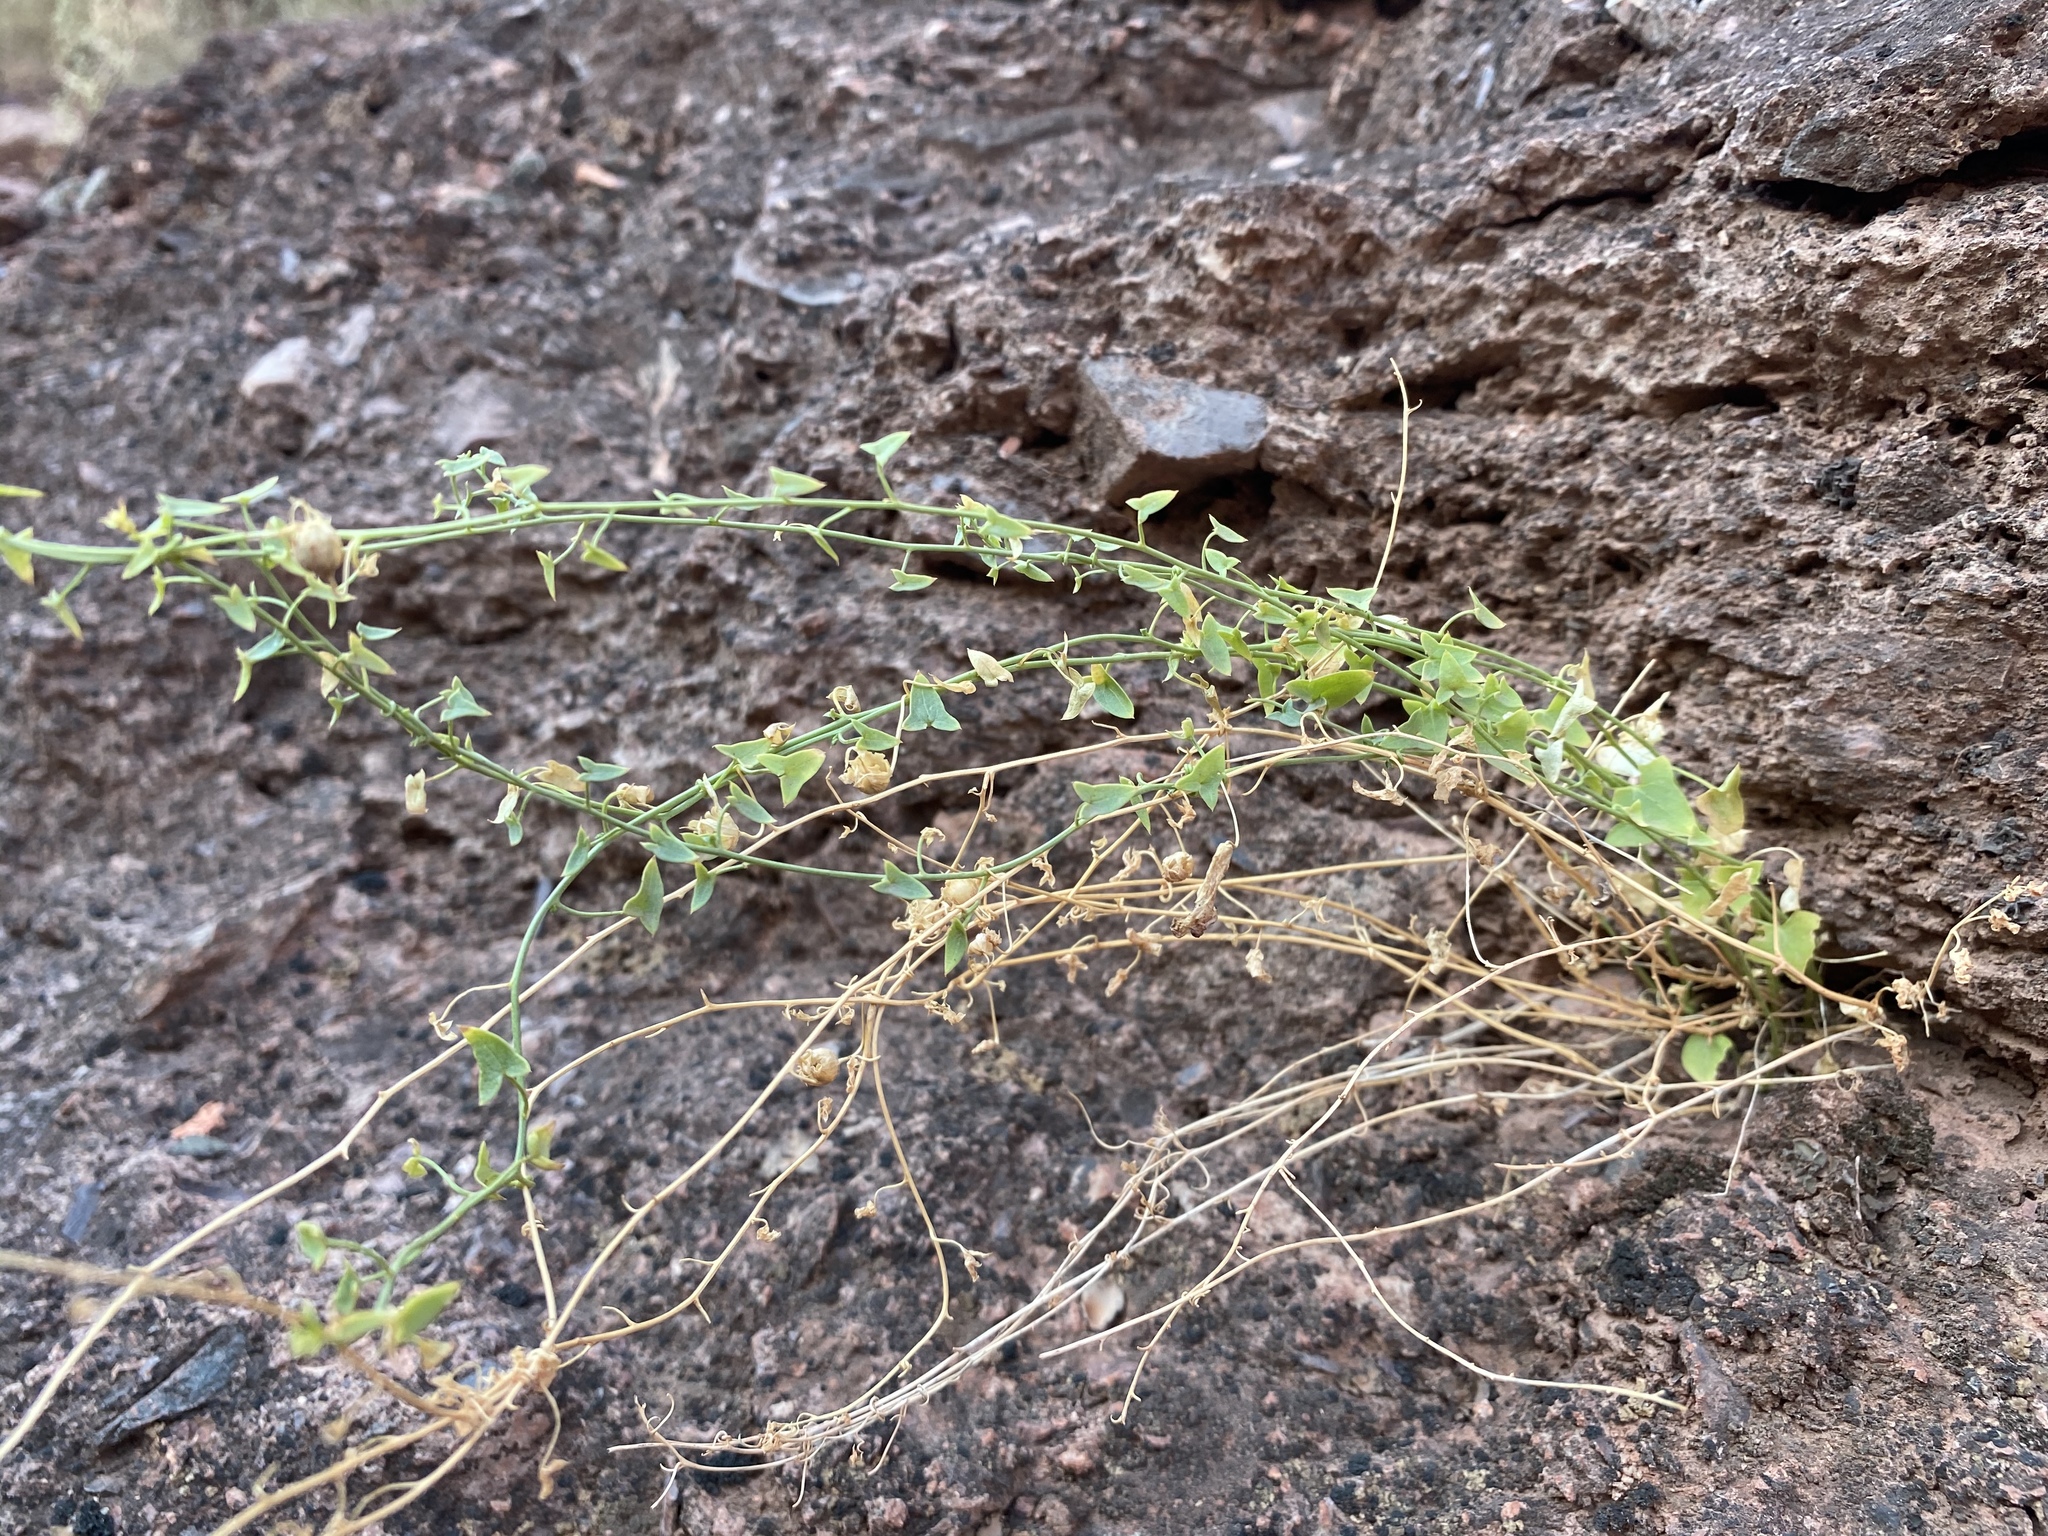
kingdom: Plantae
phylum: Tracheophyta
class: Magnoliopsida
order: Lamiales
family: Plantaginaceae
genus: Maurandella
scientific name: Maurandella antirrhiniflora
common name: Violet twining-snapdragon
